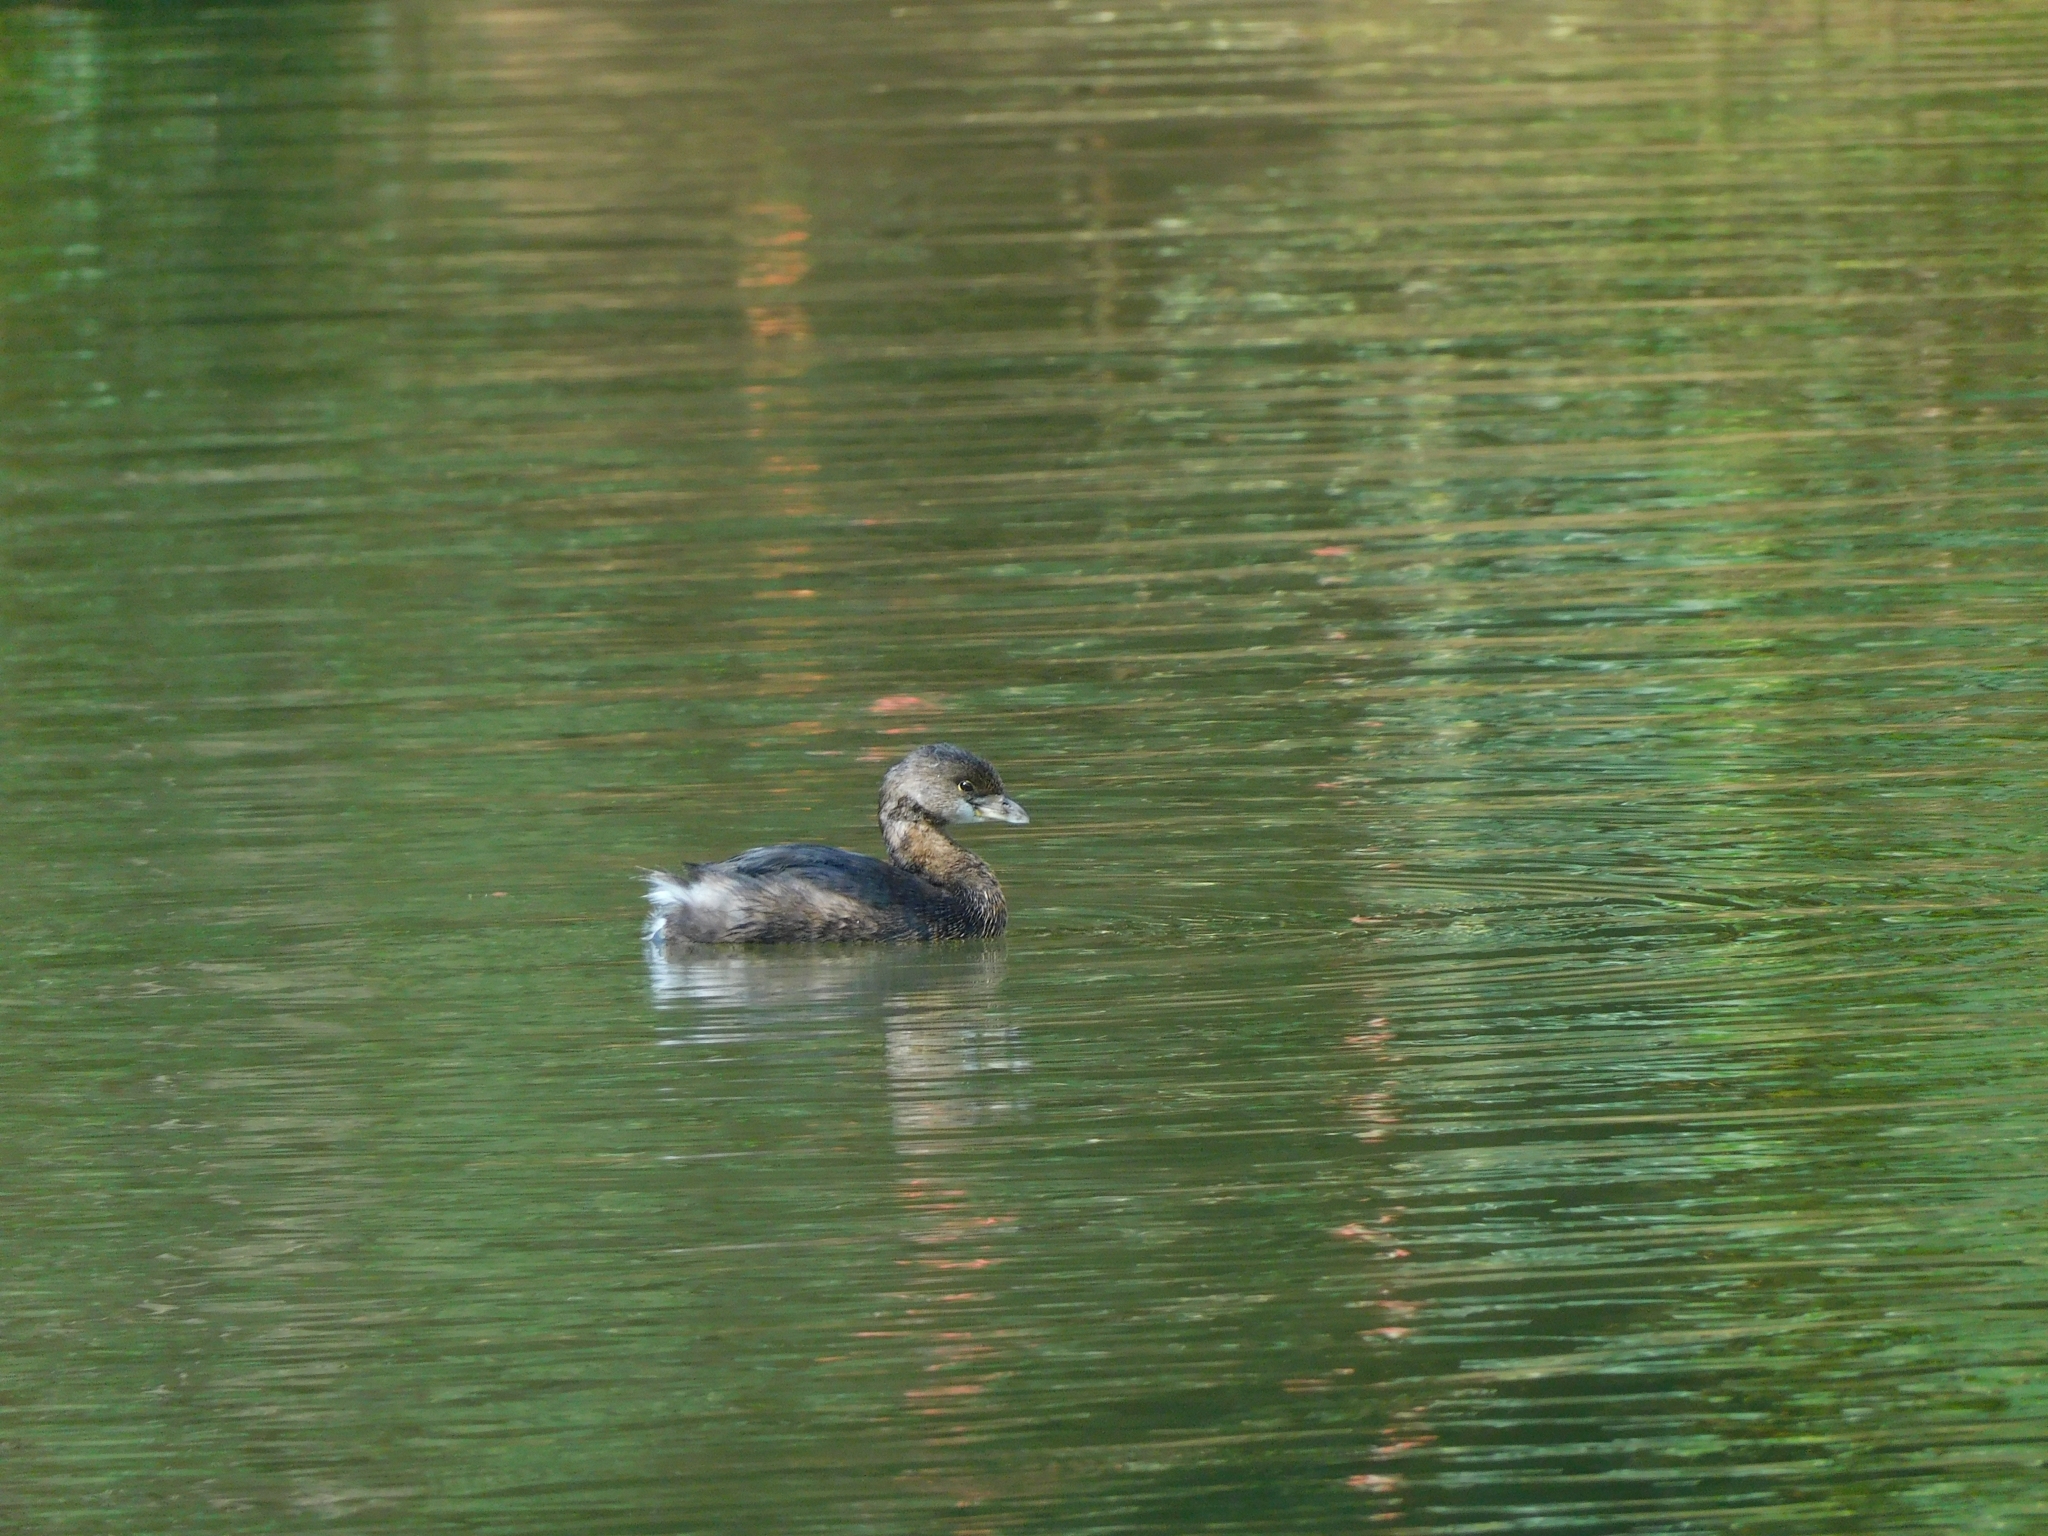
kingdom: Animalia
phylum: Chordata
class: Aves
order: Podicipediformes
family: Podicipedidae
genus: Podilymbus
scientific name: Podilymbus podiceps
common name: Pied-billed grebe
